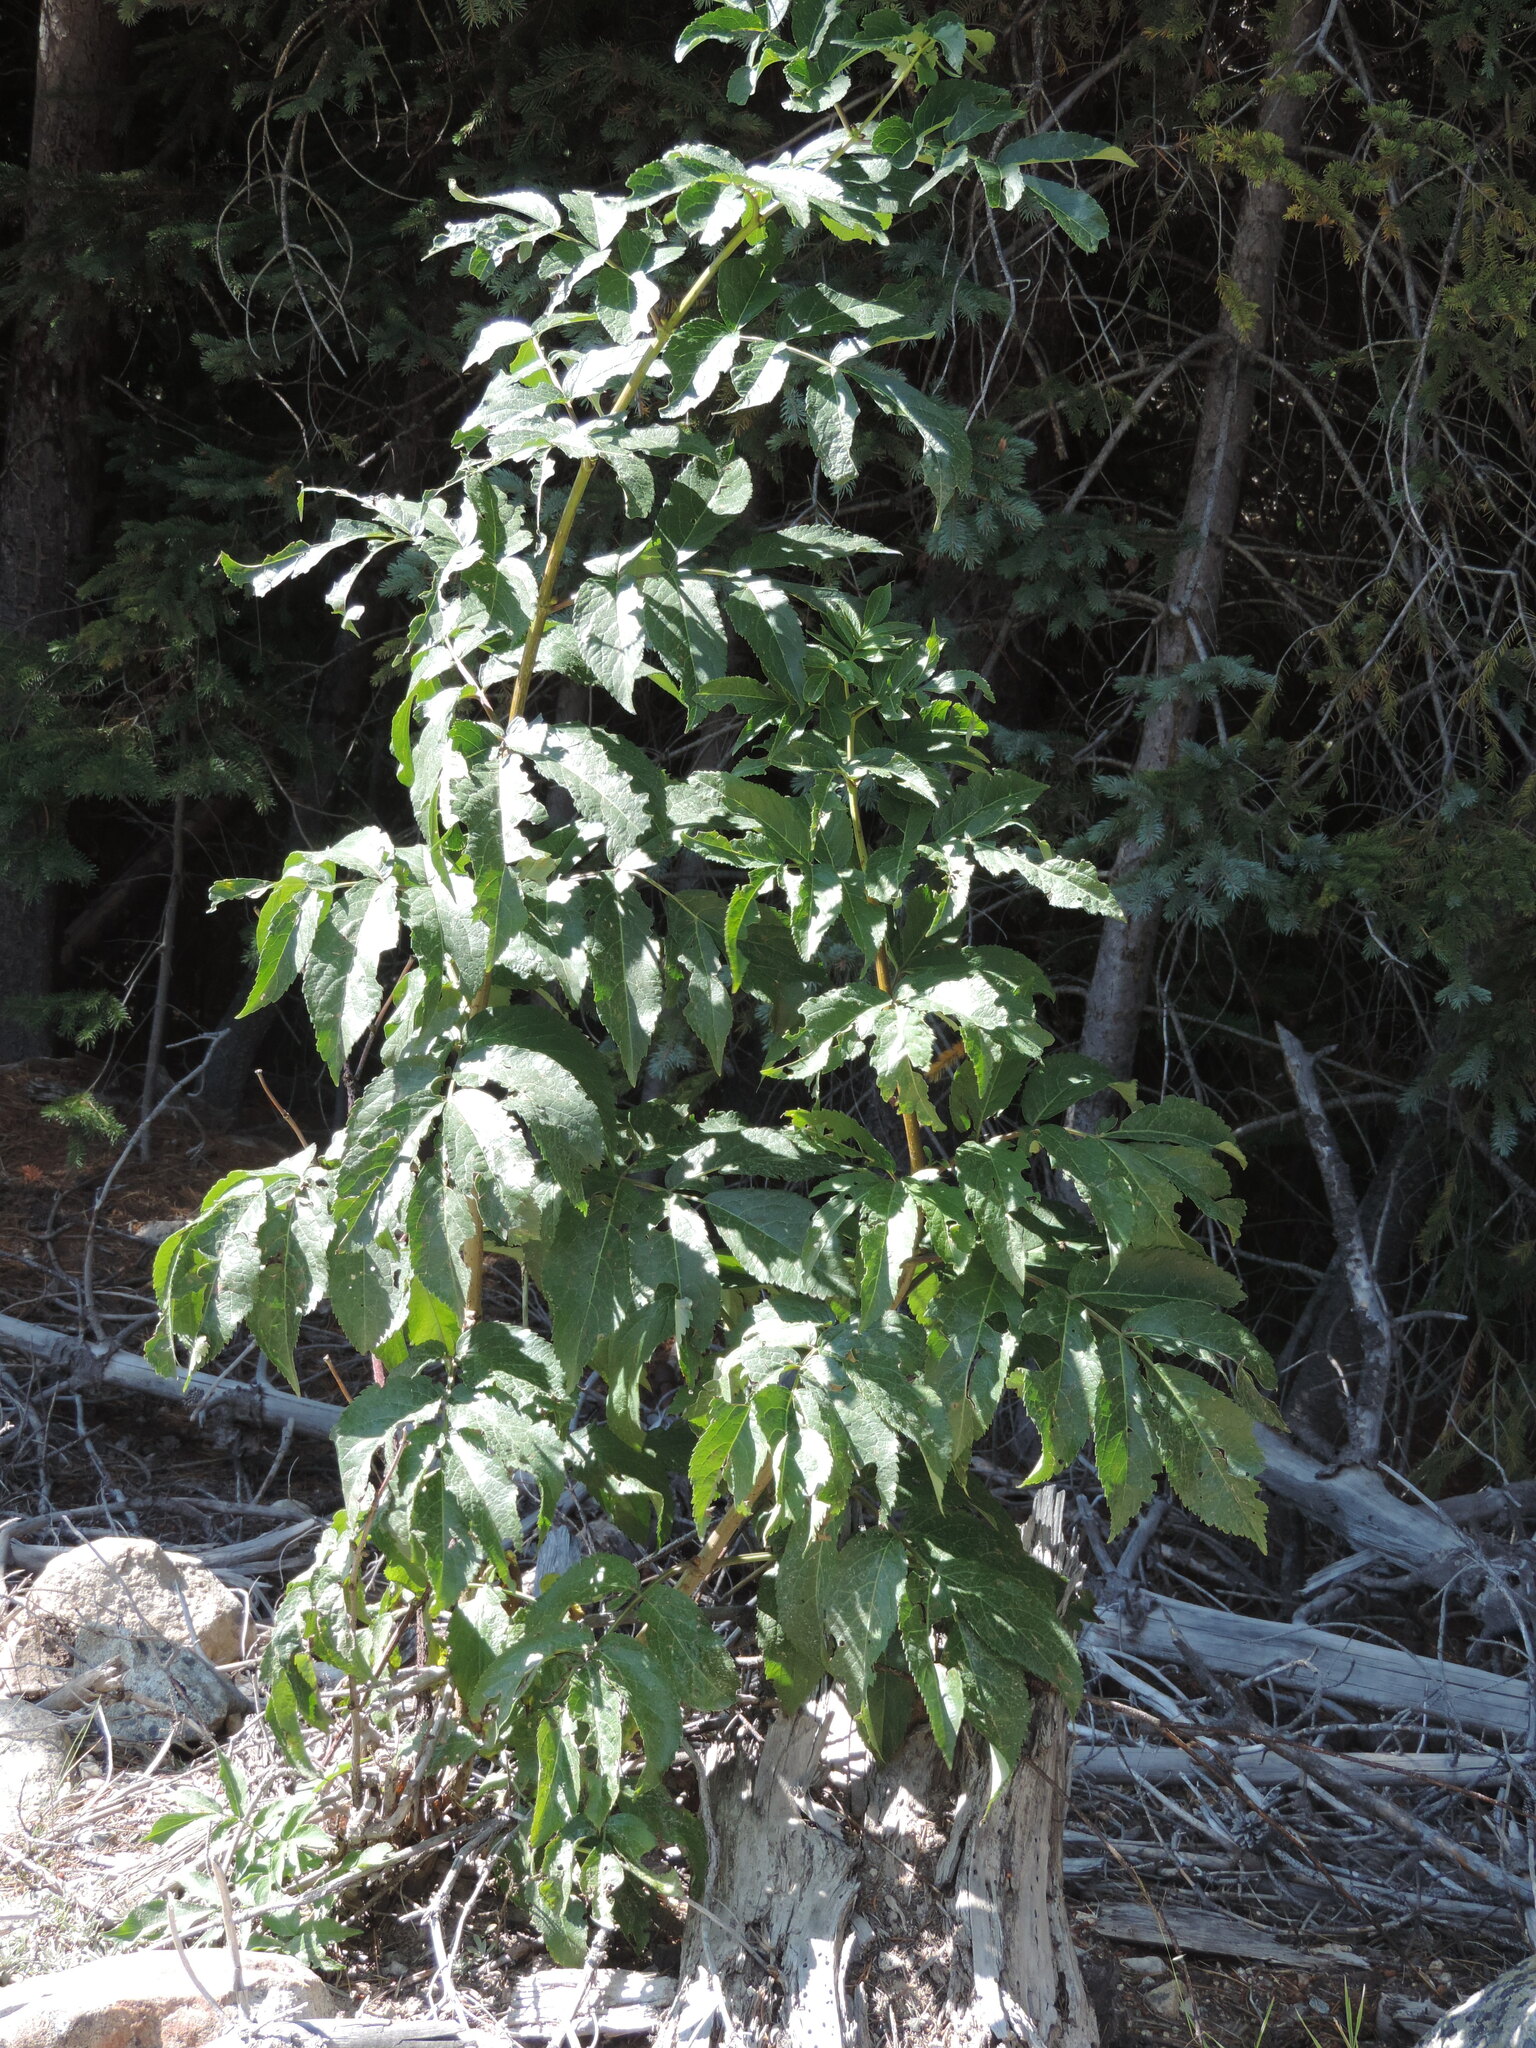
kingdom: Plantae
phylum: Tracheophyta
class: Magnoliopsida
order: Dipsacales
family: Viburnaceae
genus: Sambucus
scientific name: Sambucus racemosa
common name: Red-berried elder
